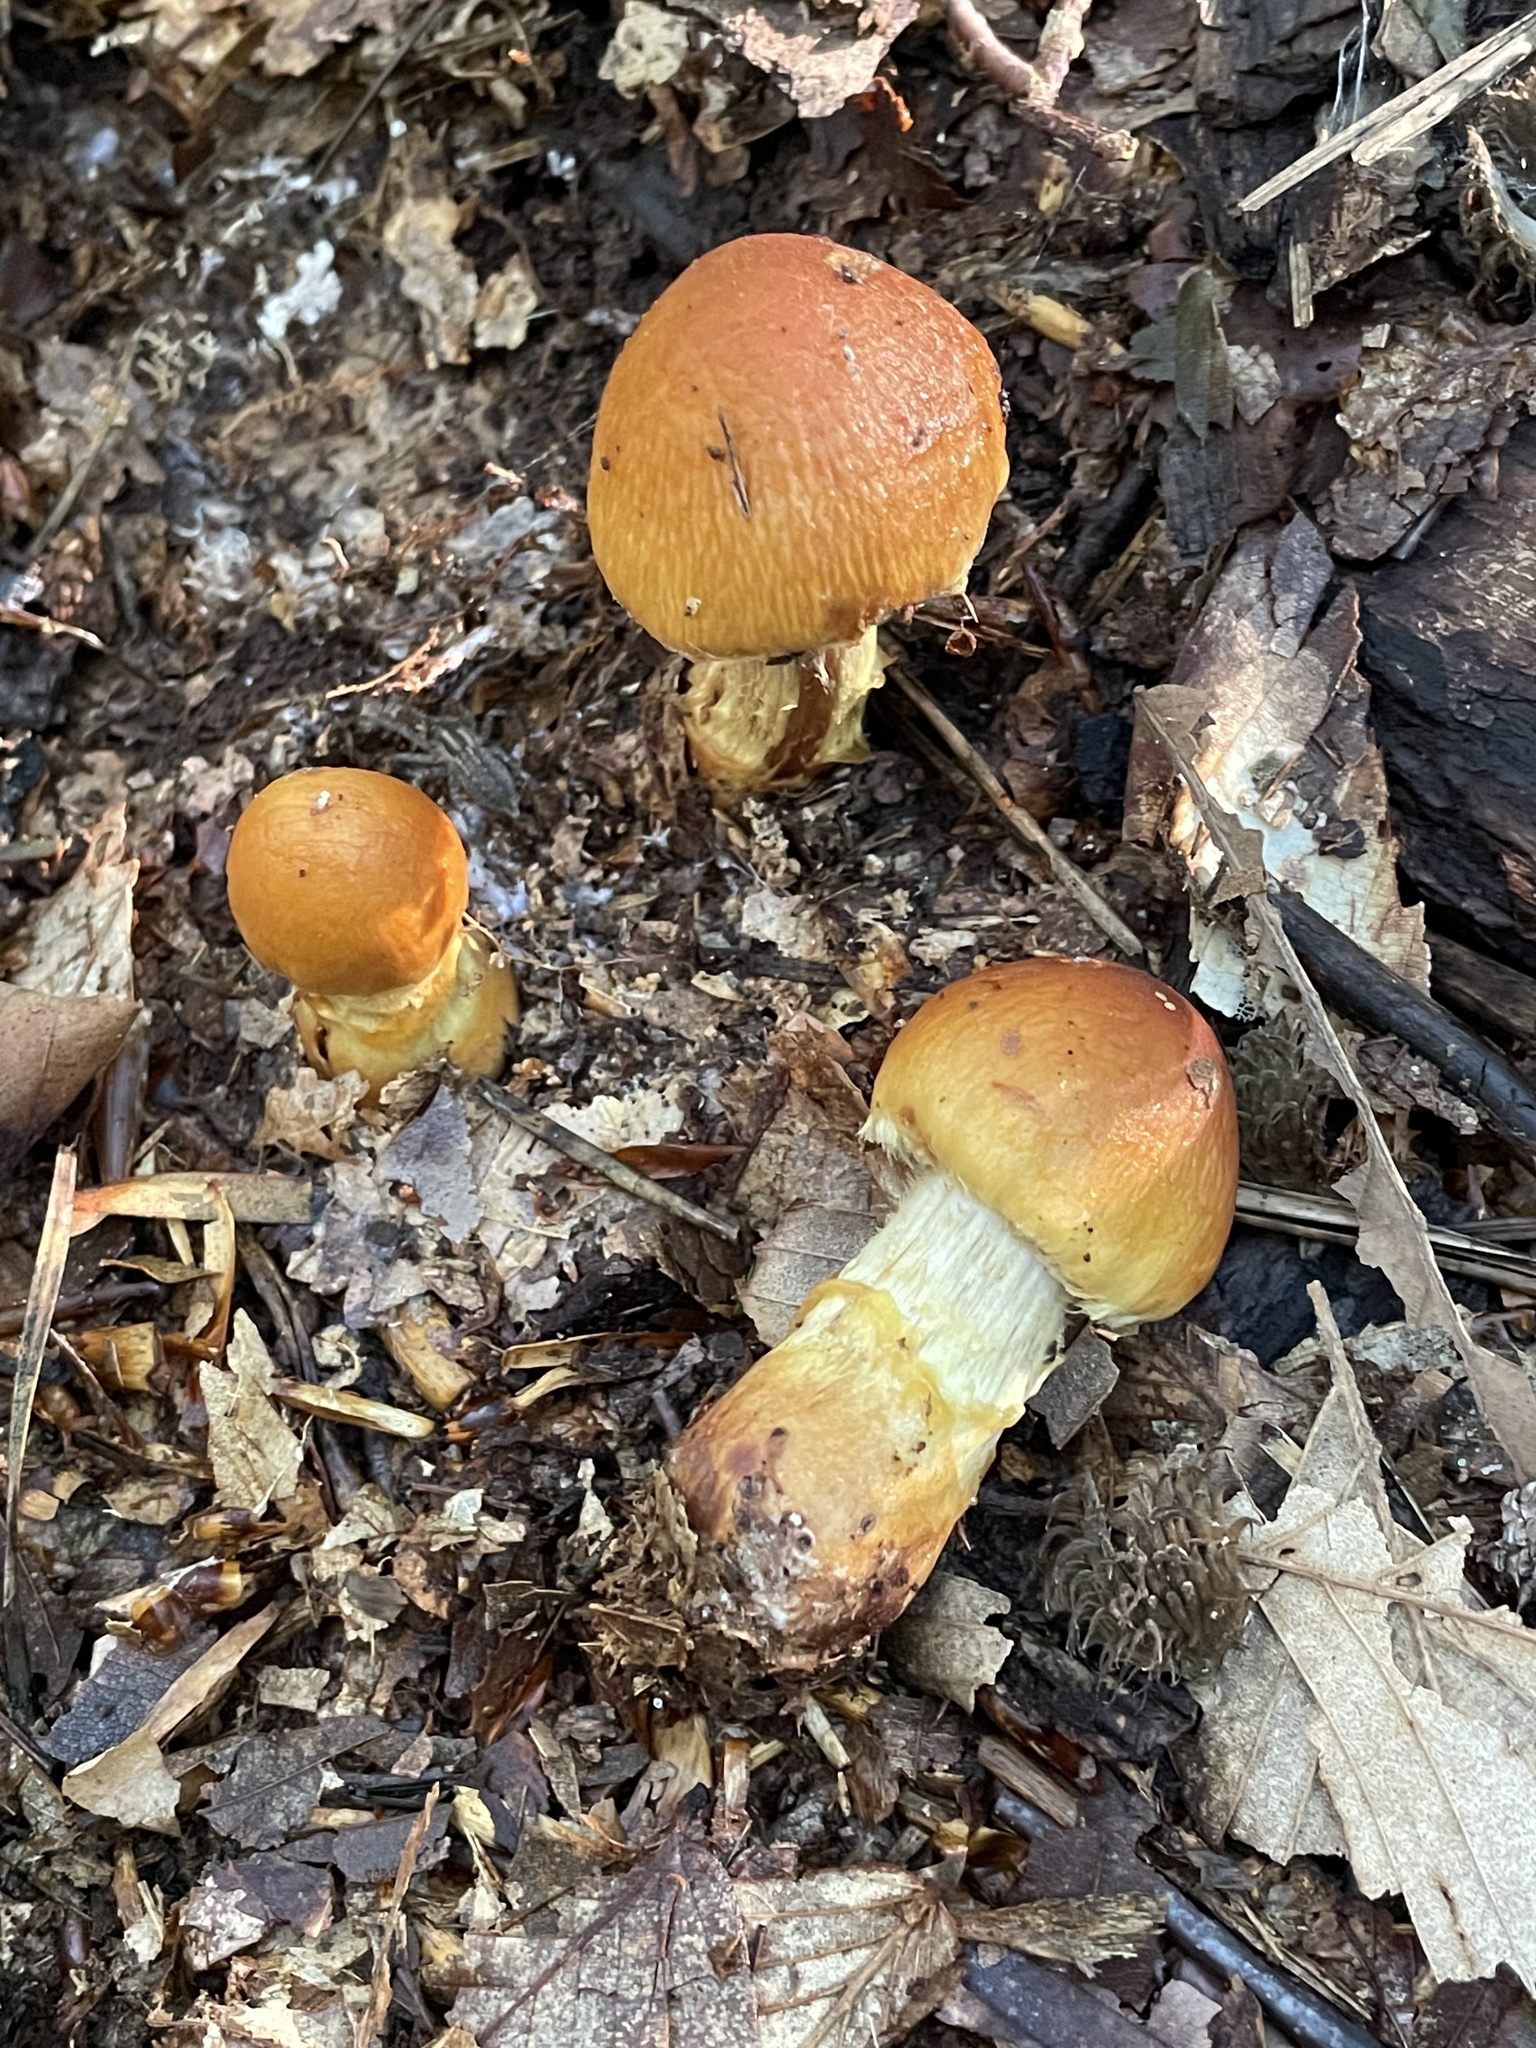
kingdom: Fungi
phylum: Basidiomycota
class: Agaricomycetes
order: Agaricales
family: Cortinariaceae
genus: Cortinarius
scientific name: Cortinarius corrugatus
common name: Wrinkled cortinarius
